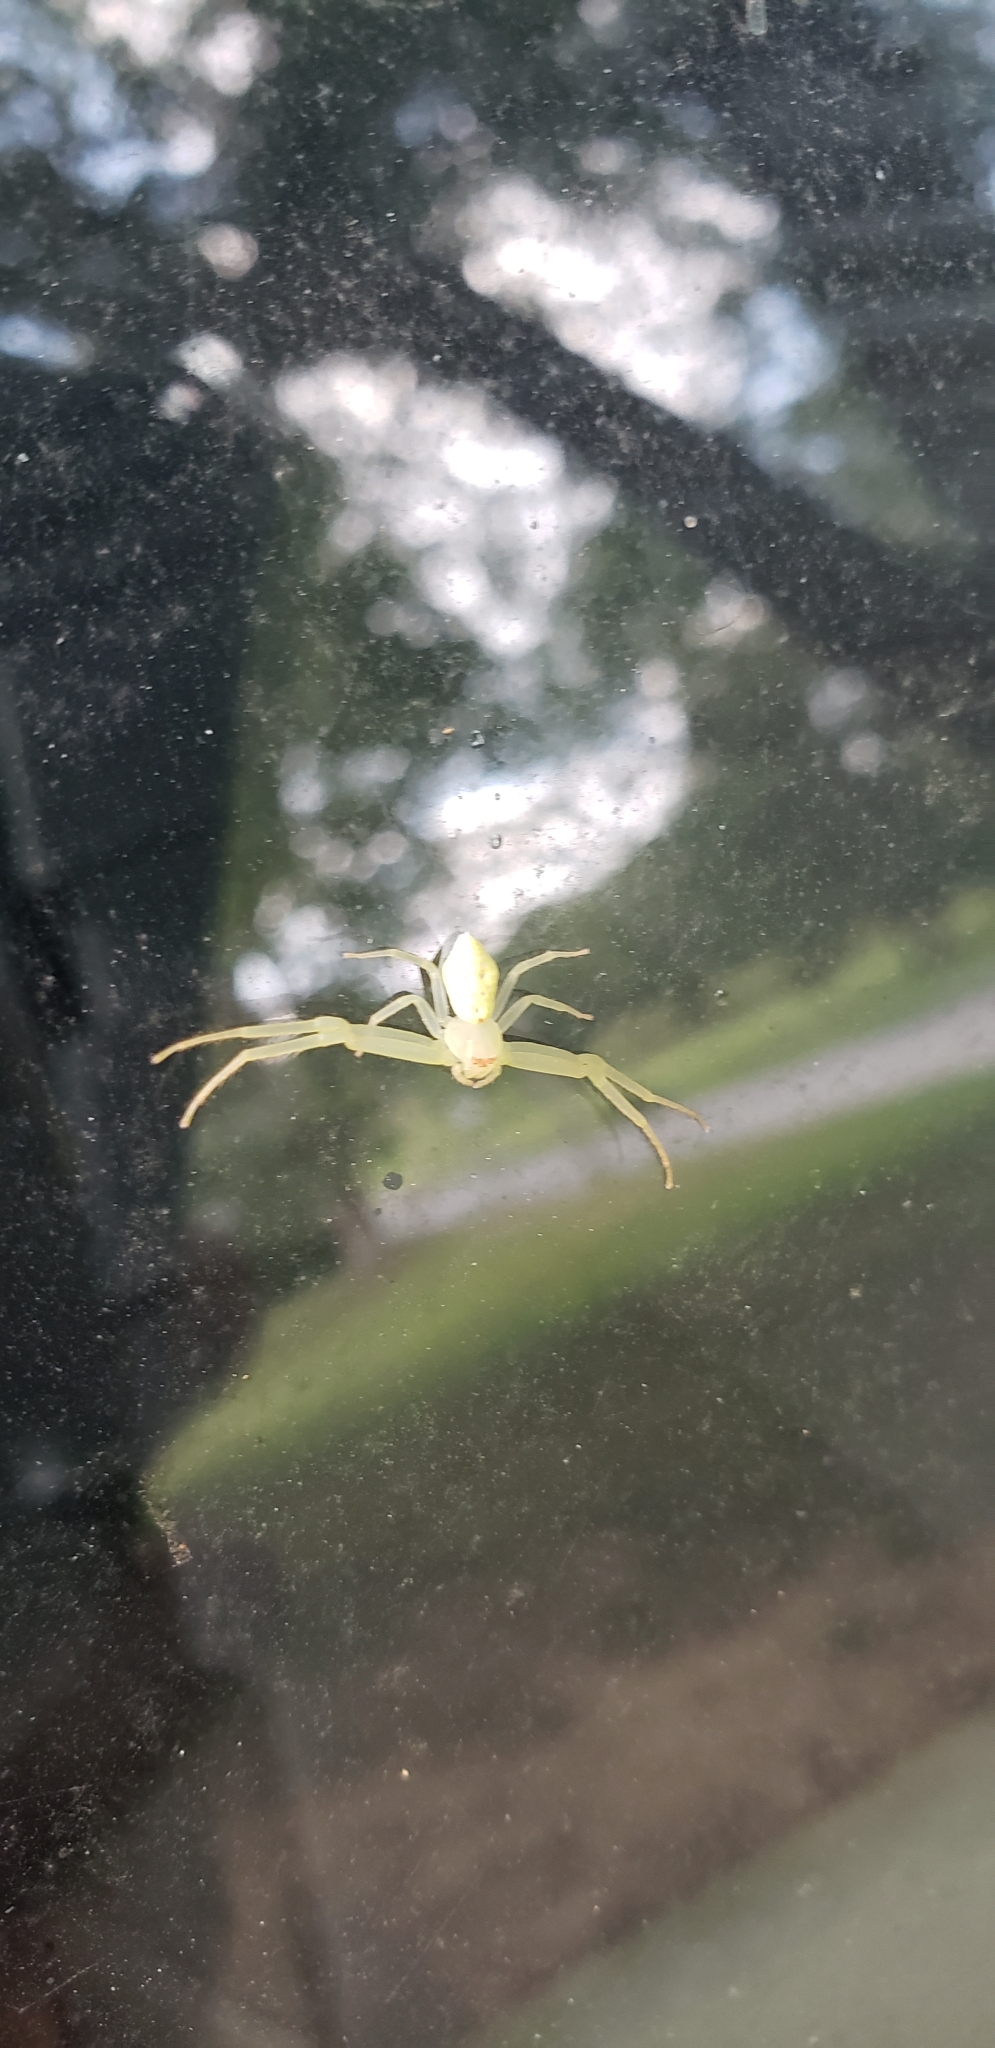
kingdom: Animalia
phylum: Arthropoda
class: Arachnida
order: Araneae
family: Thomisidae
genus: Misumessus
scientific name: Misumessus oblongus
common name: American green crab spider
